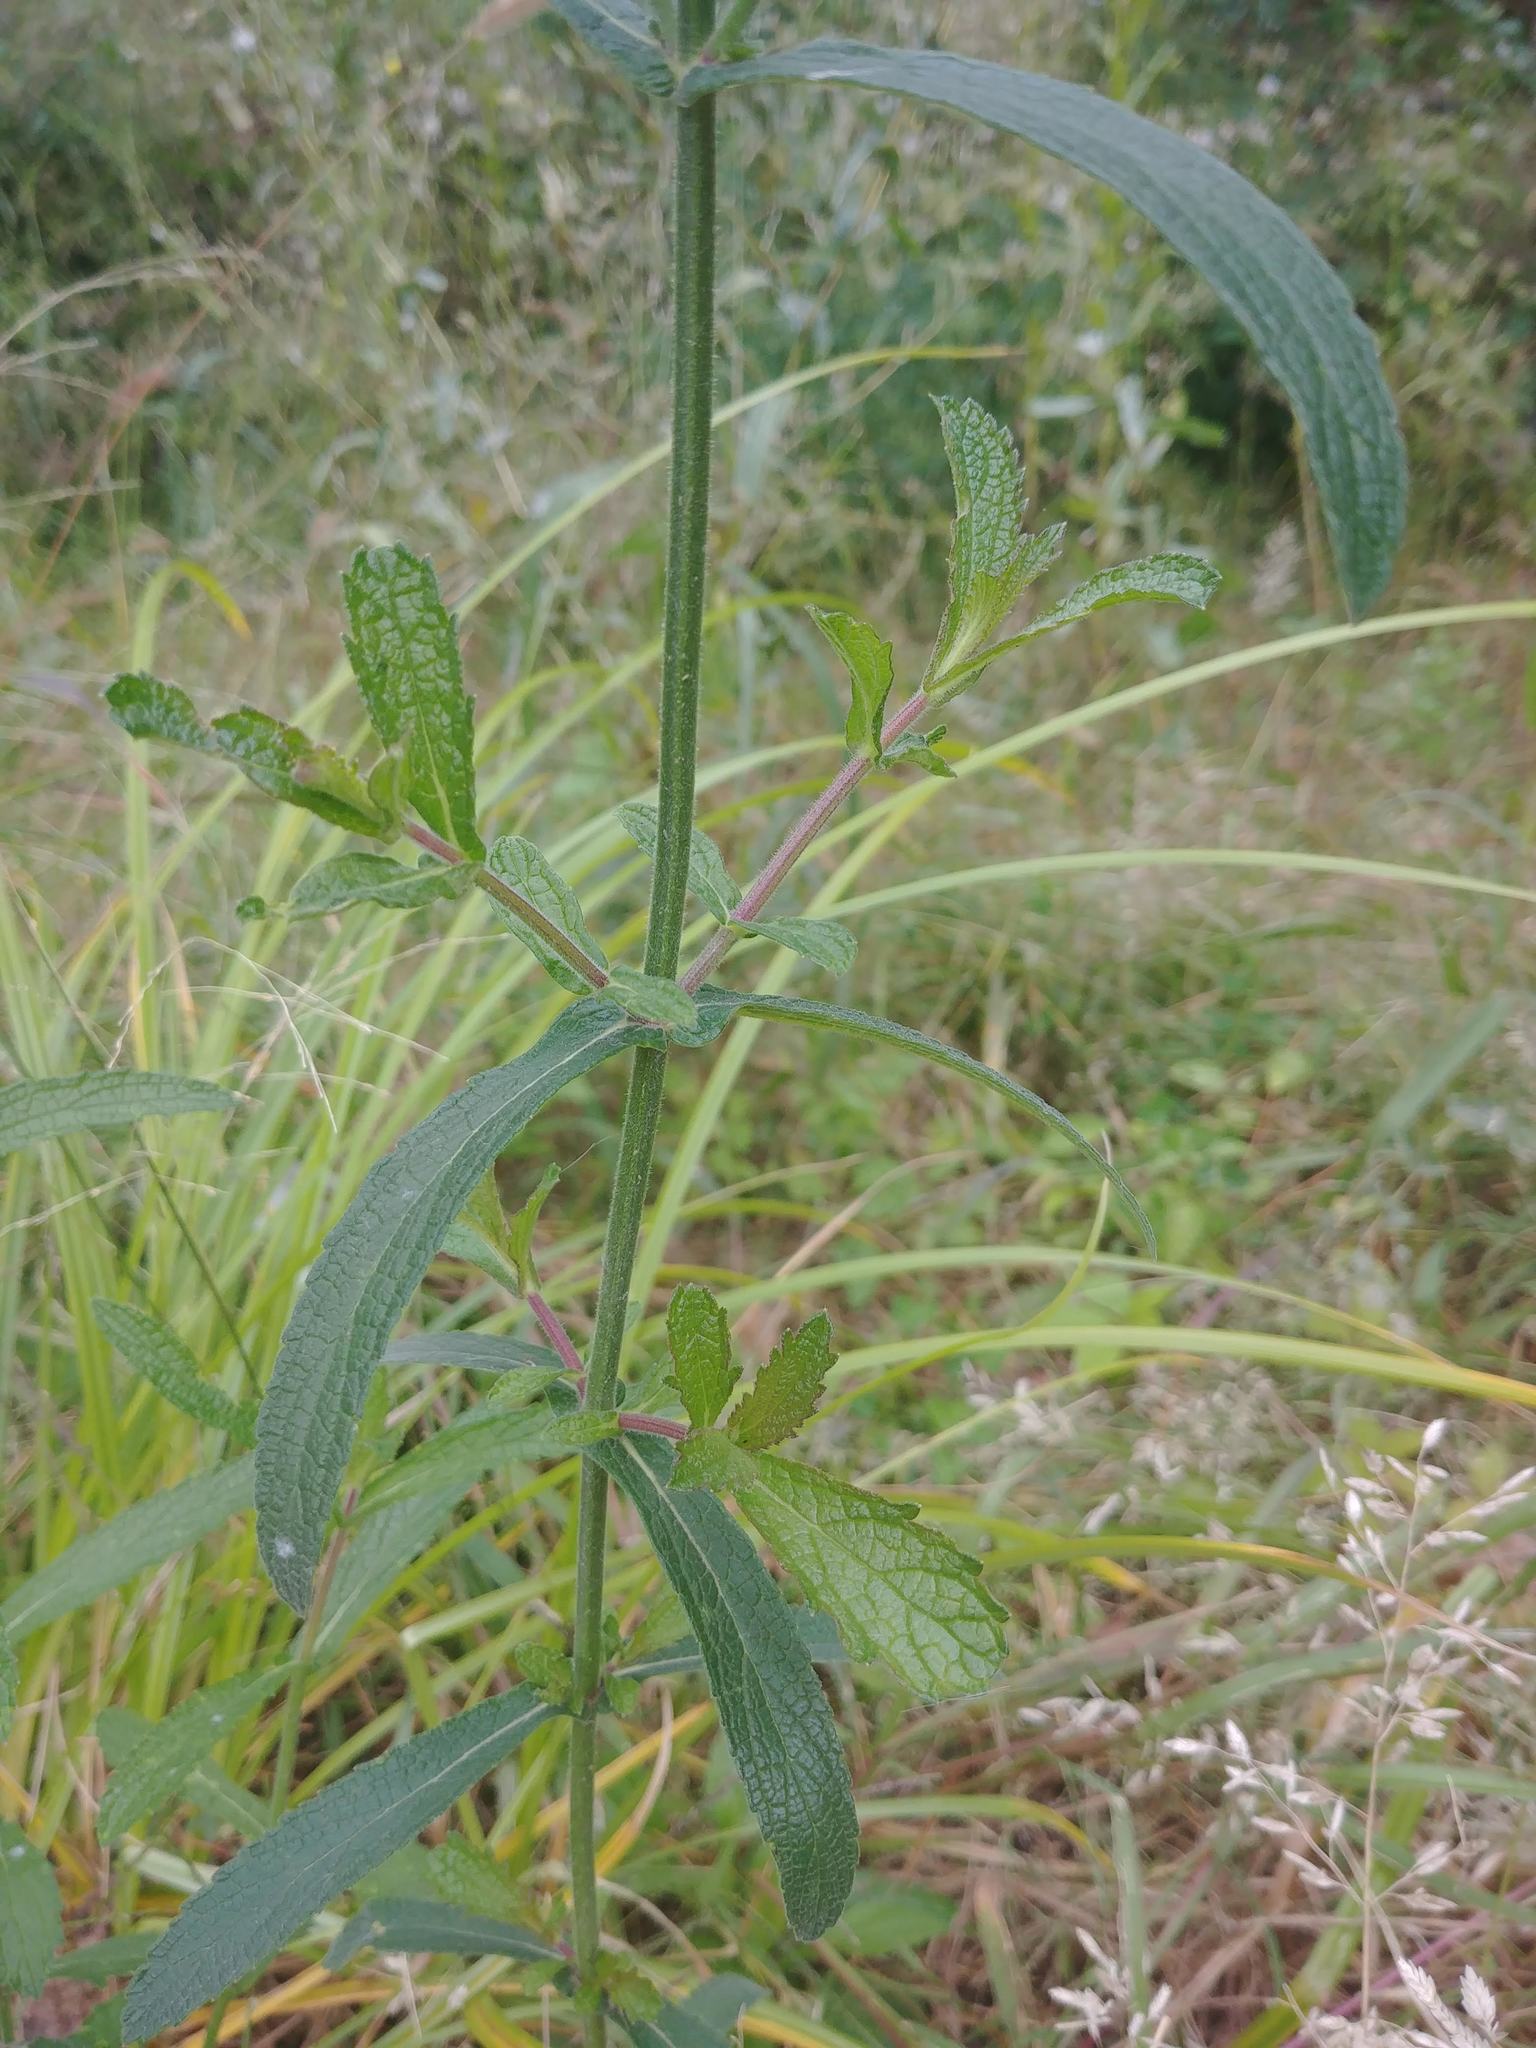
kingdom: Plantae
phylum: Tracheophyta
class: Magnoliopsida
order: Lamiales
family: Verbenaceae
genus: Verbena
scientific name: Verbena bonariensis
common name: Purpletop vervain
